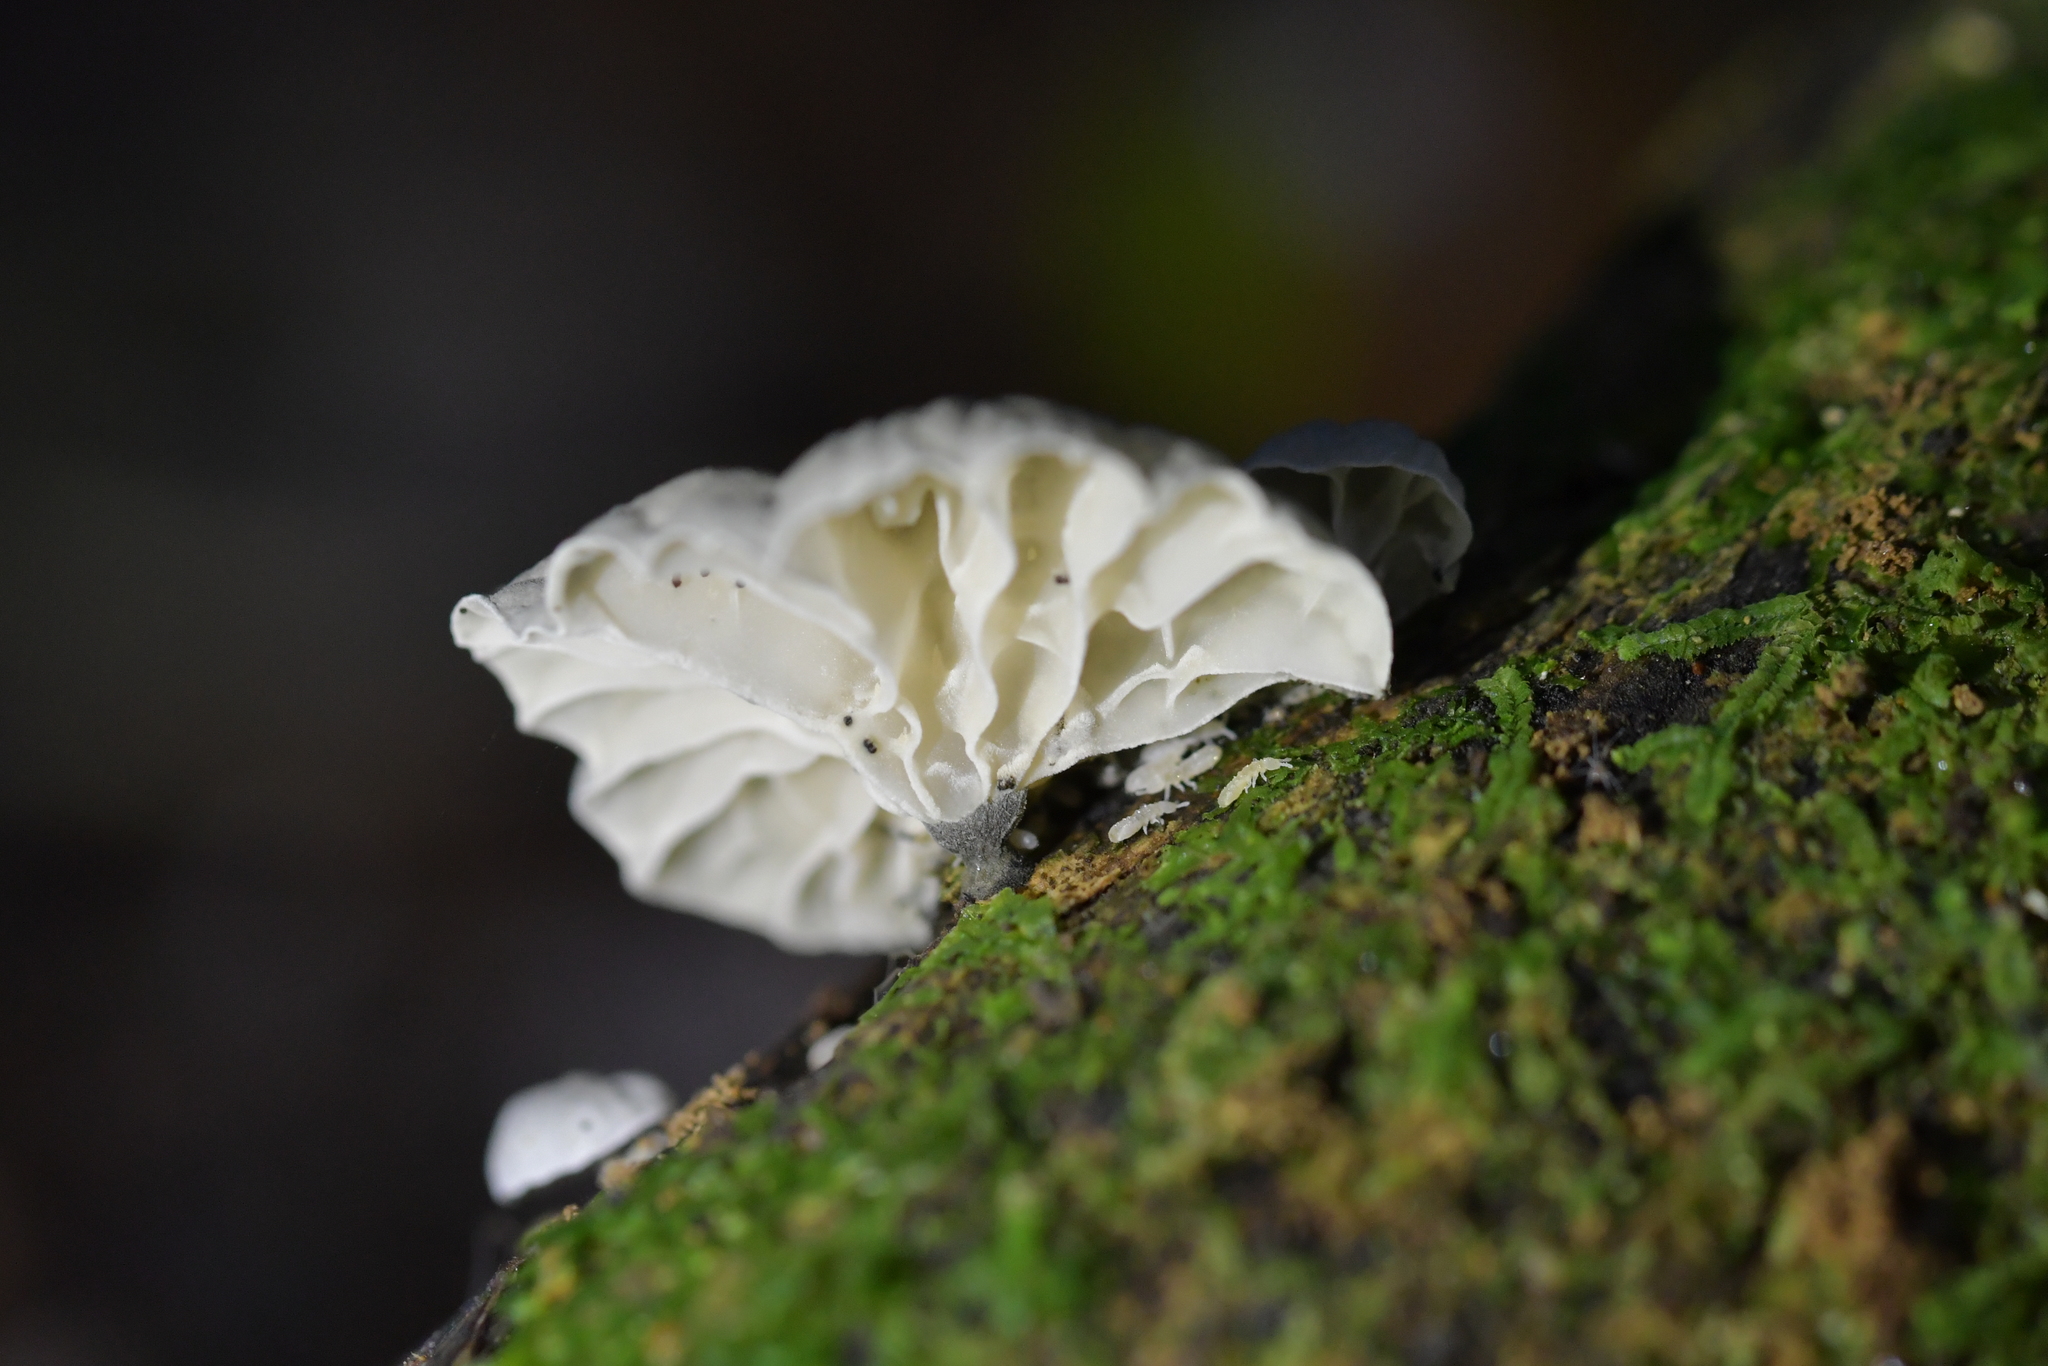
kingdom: Fungi
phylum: Basidiomycota
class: Agaricomycetes
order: Agaricales
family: Marasmiaceae
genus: Campanella
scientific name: Campanella tristis
